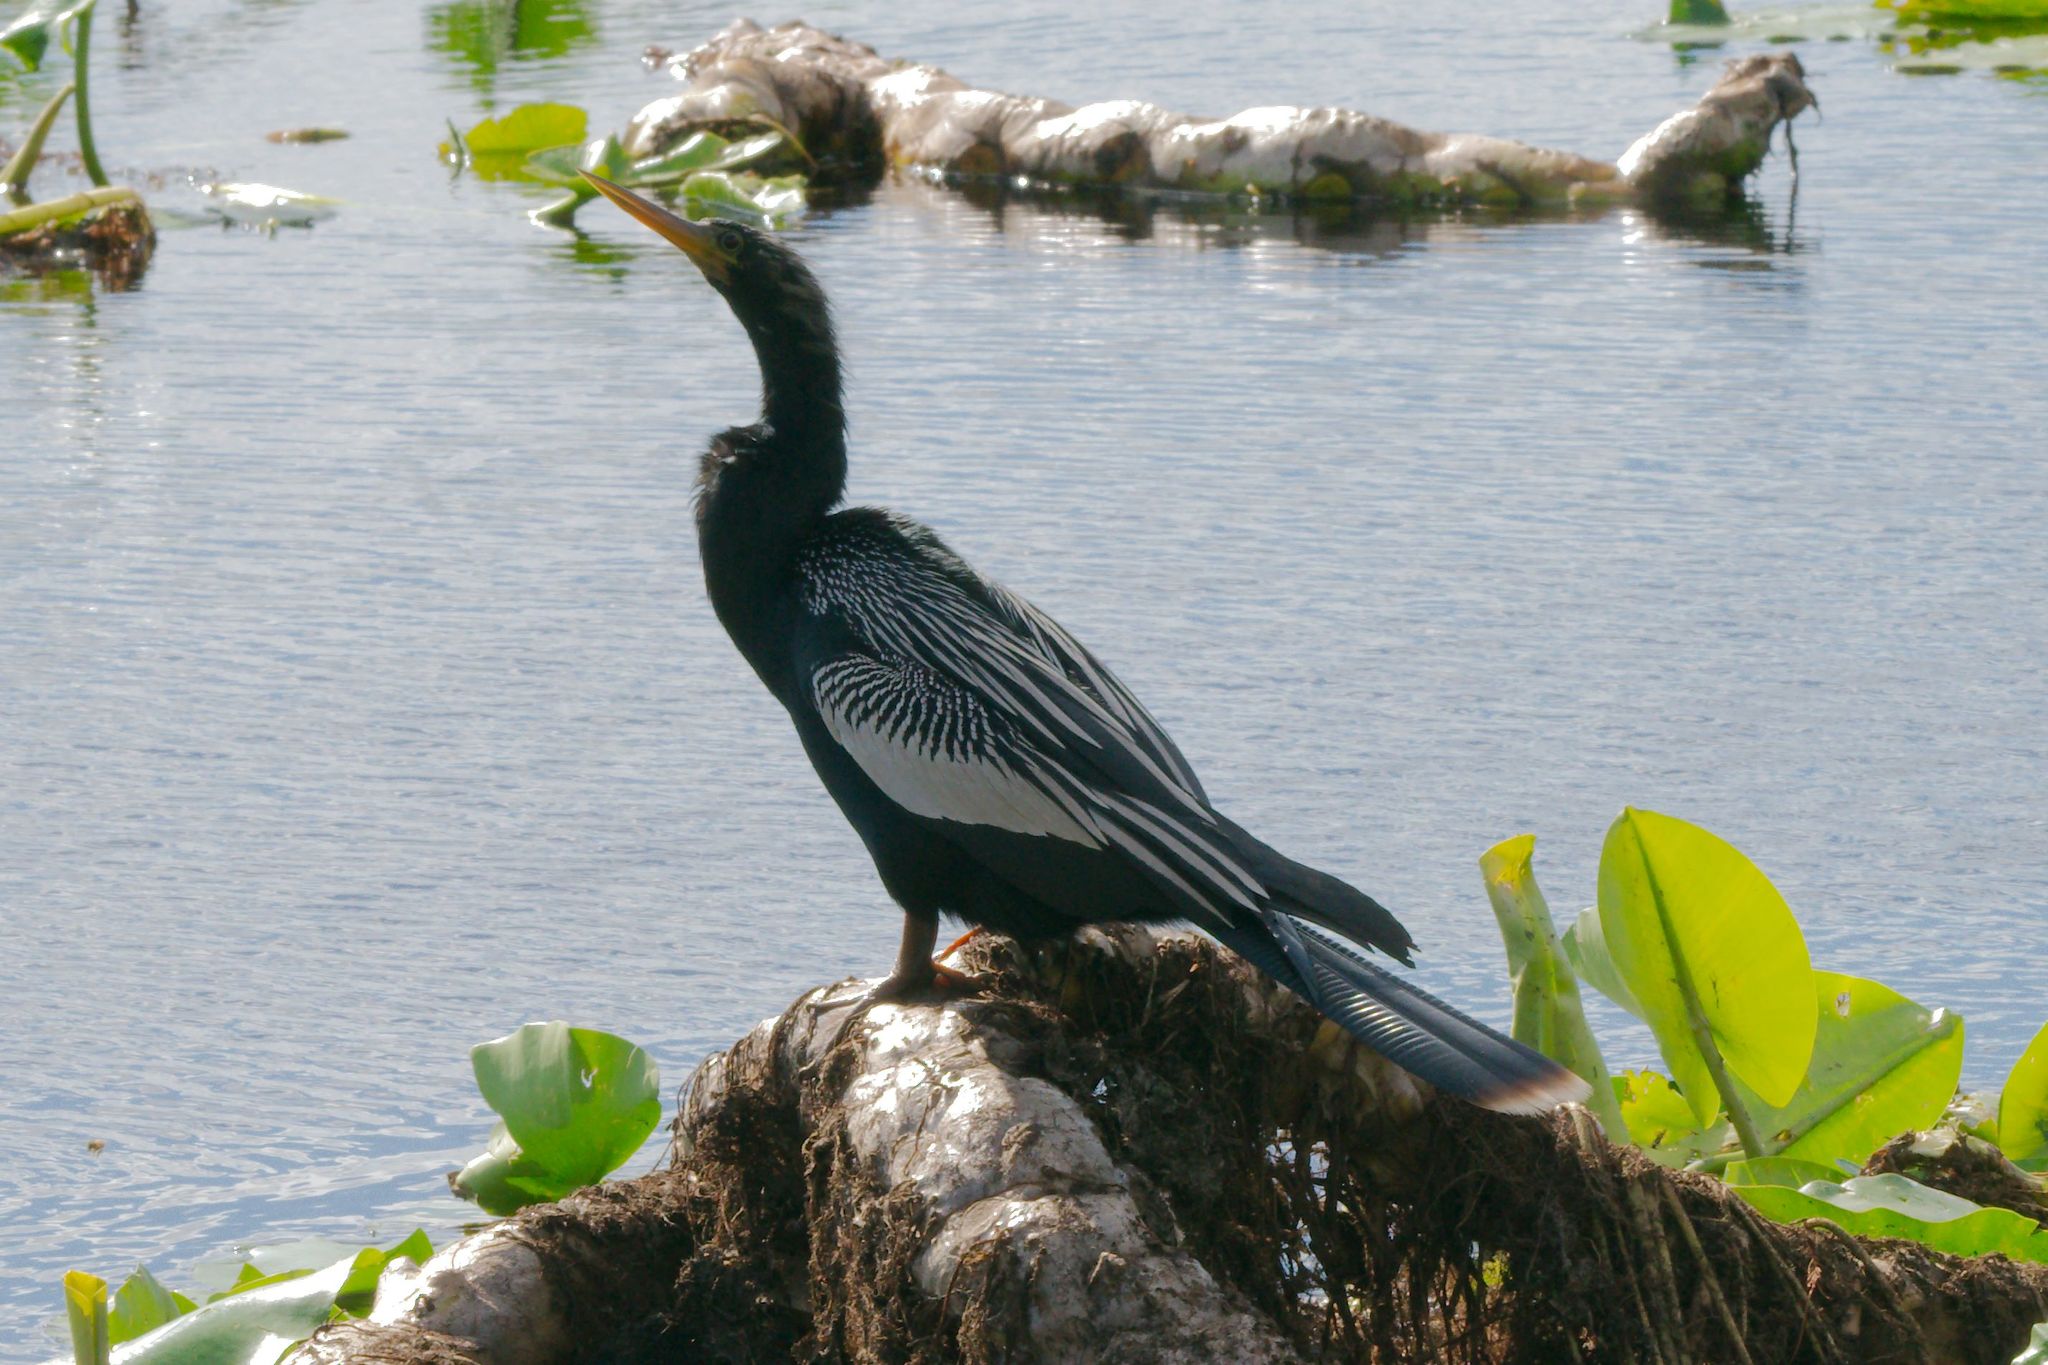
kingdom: Animalia
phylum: Chordata
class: Aves
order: Suliformes
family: Anhingidae
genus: Anhinga
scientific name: Anhinga anhinga
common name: Anhinga
